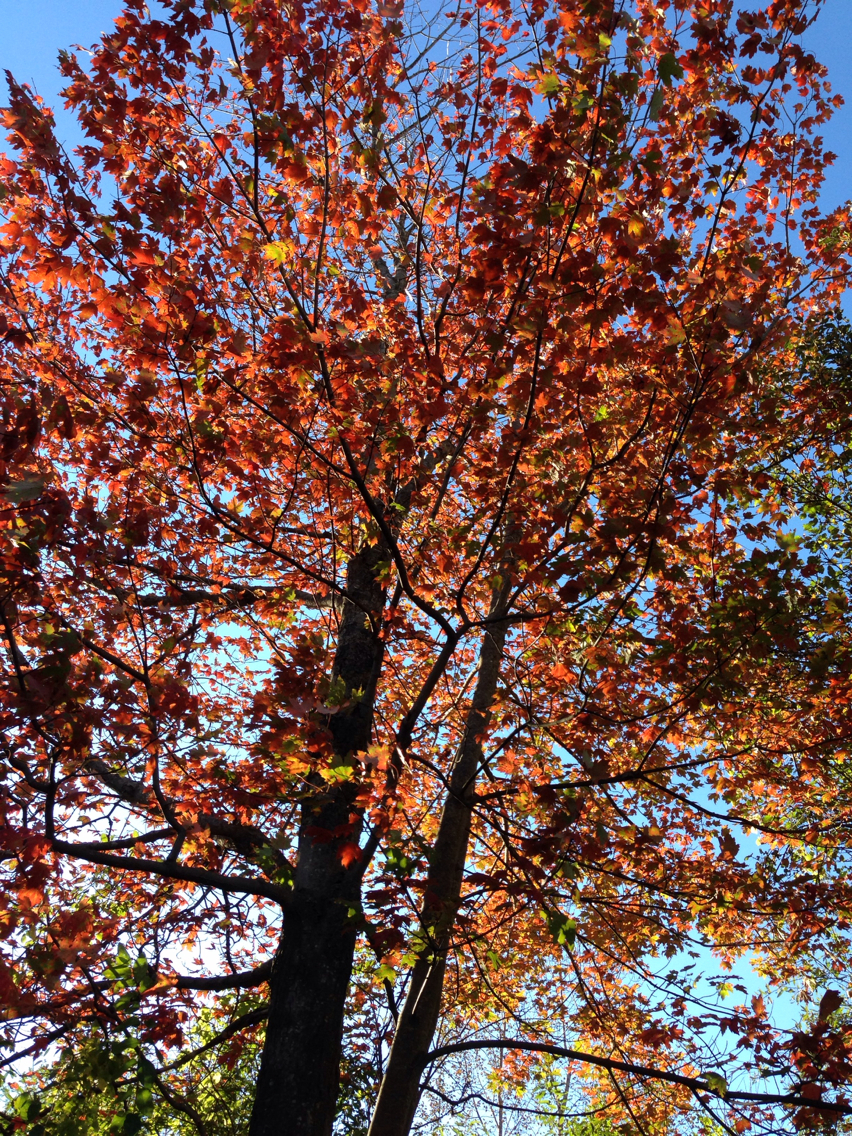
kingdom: Plantae
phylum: Tracheophyta
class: Magnoliopsida
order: Sapindales
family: Sapindaceae
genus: Acer
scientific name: Acer rubrum
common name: Red maple
